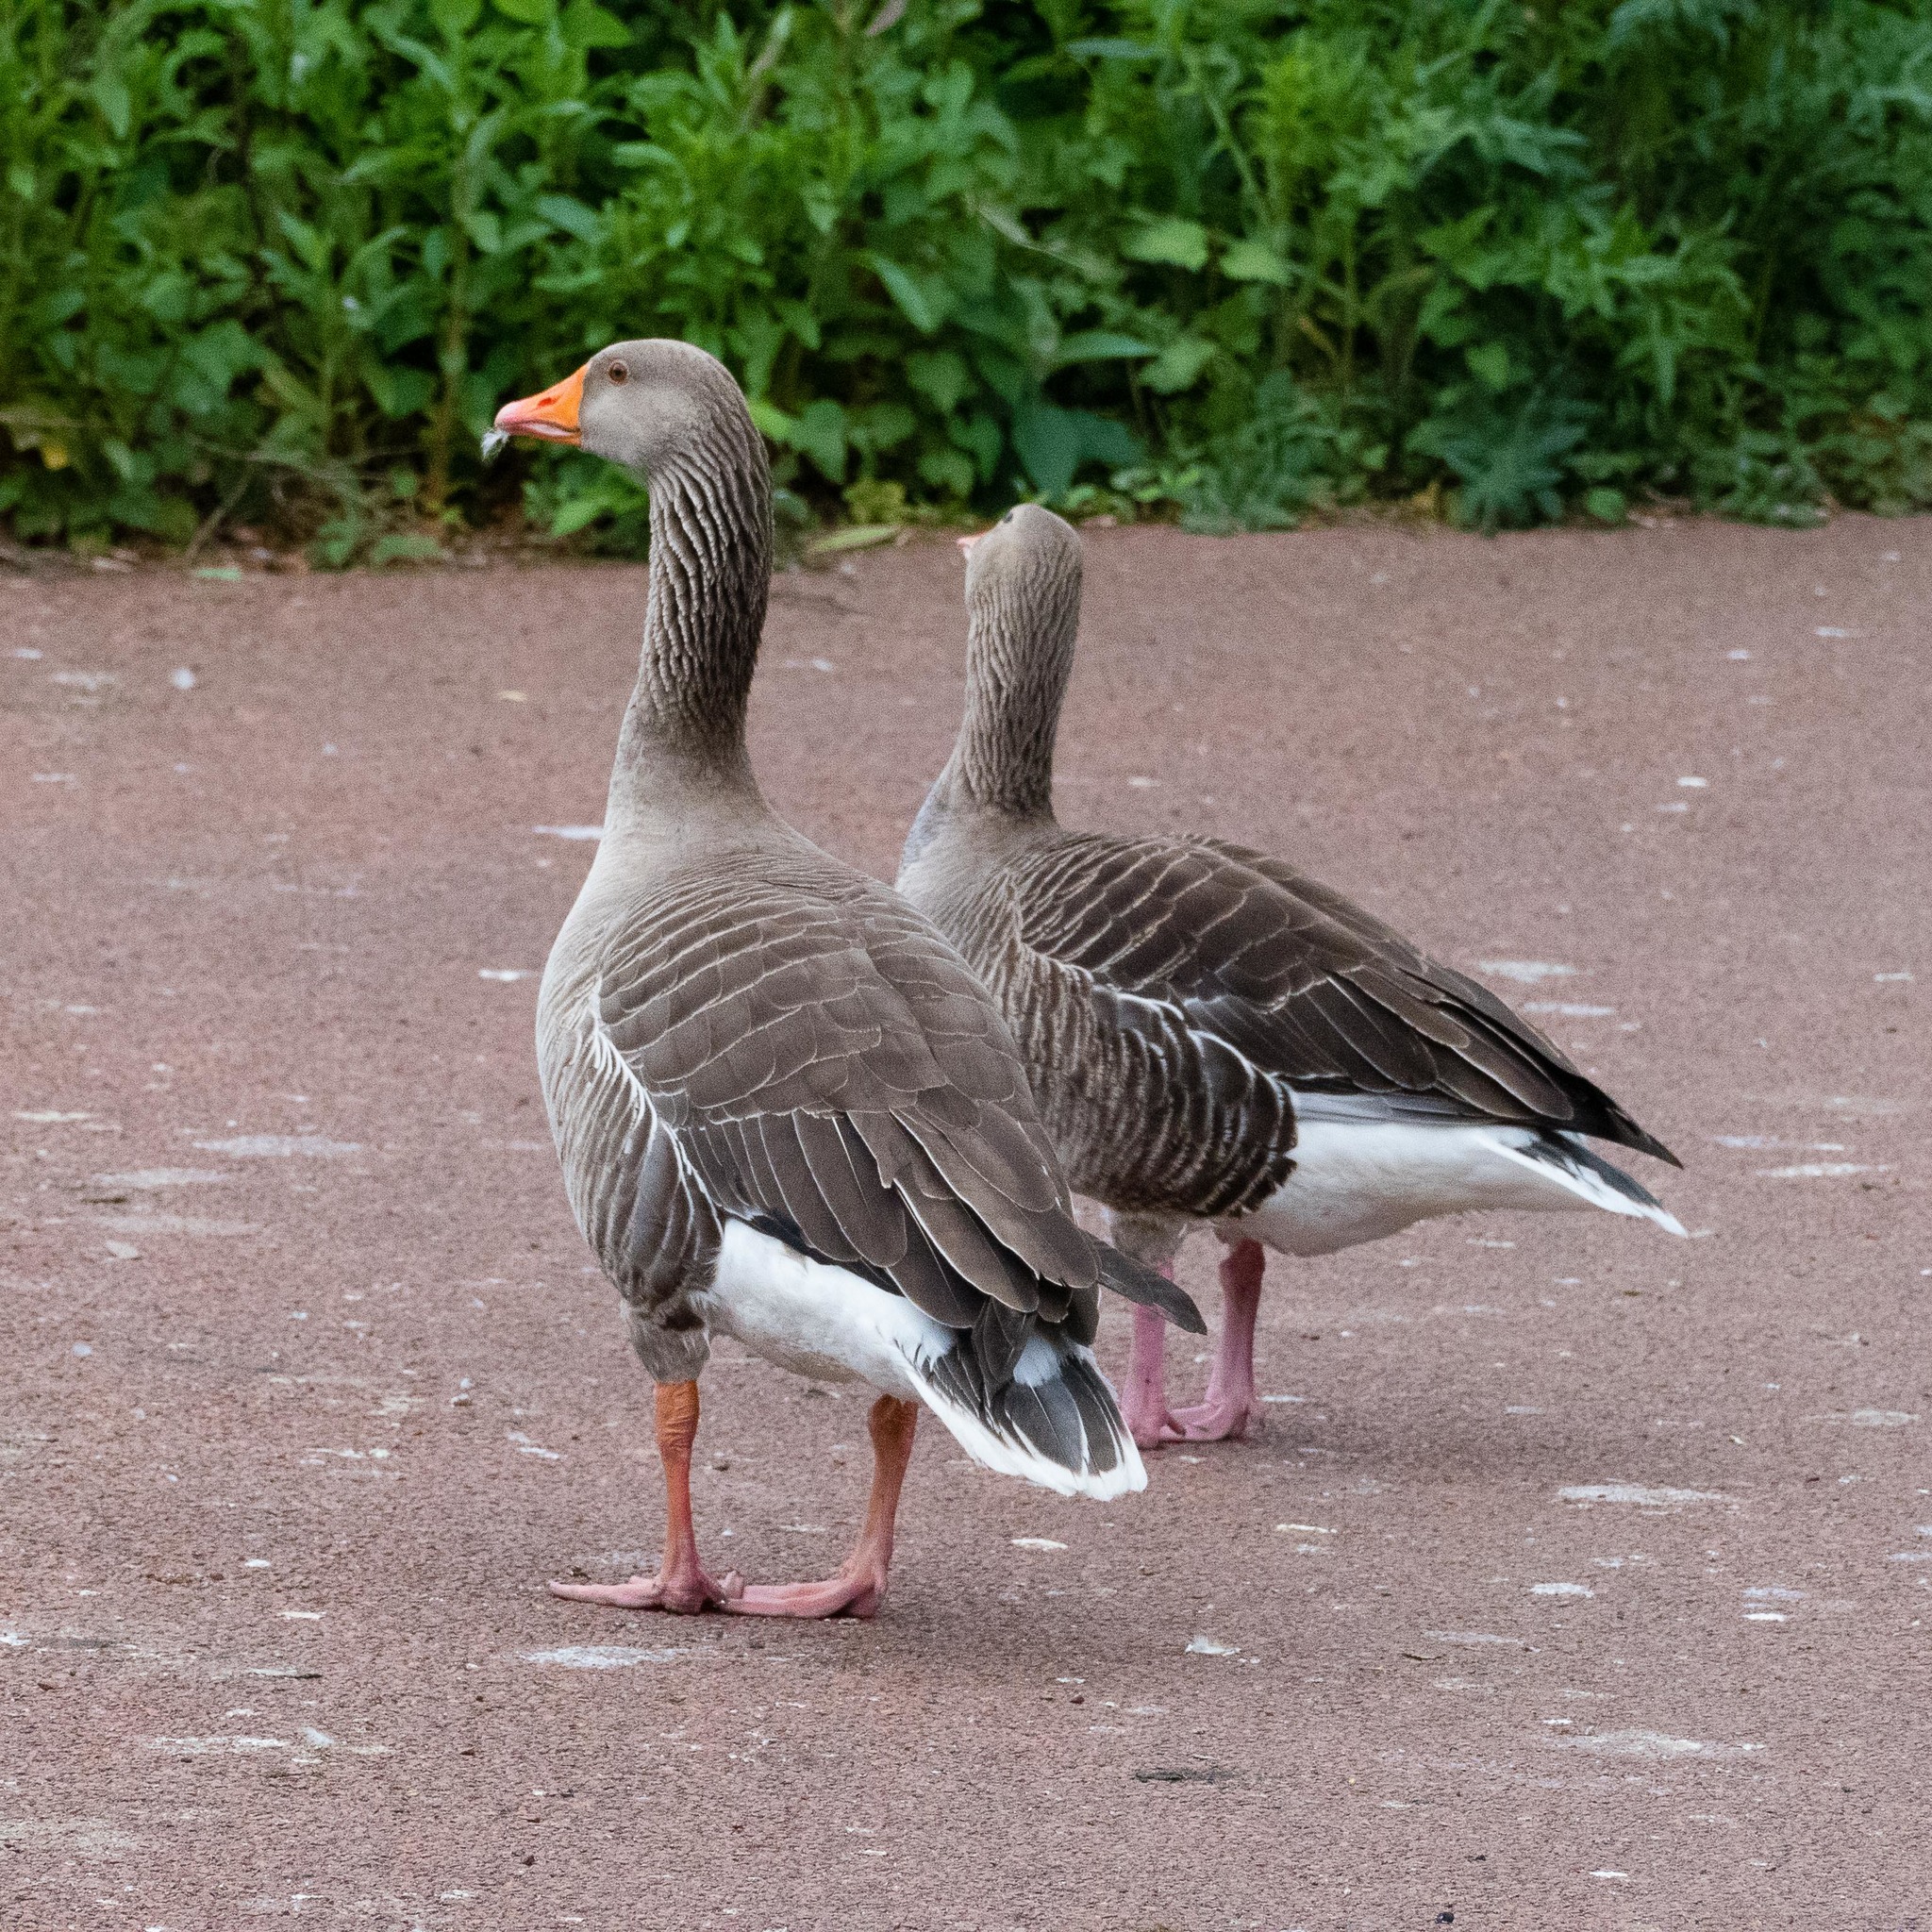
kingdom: Animalia
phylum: Chordata
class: Aves
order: Anseriformes
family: Anatidae
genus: Anser
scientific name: Anser anser
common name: Greylag goose
